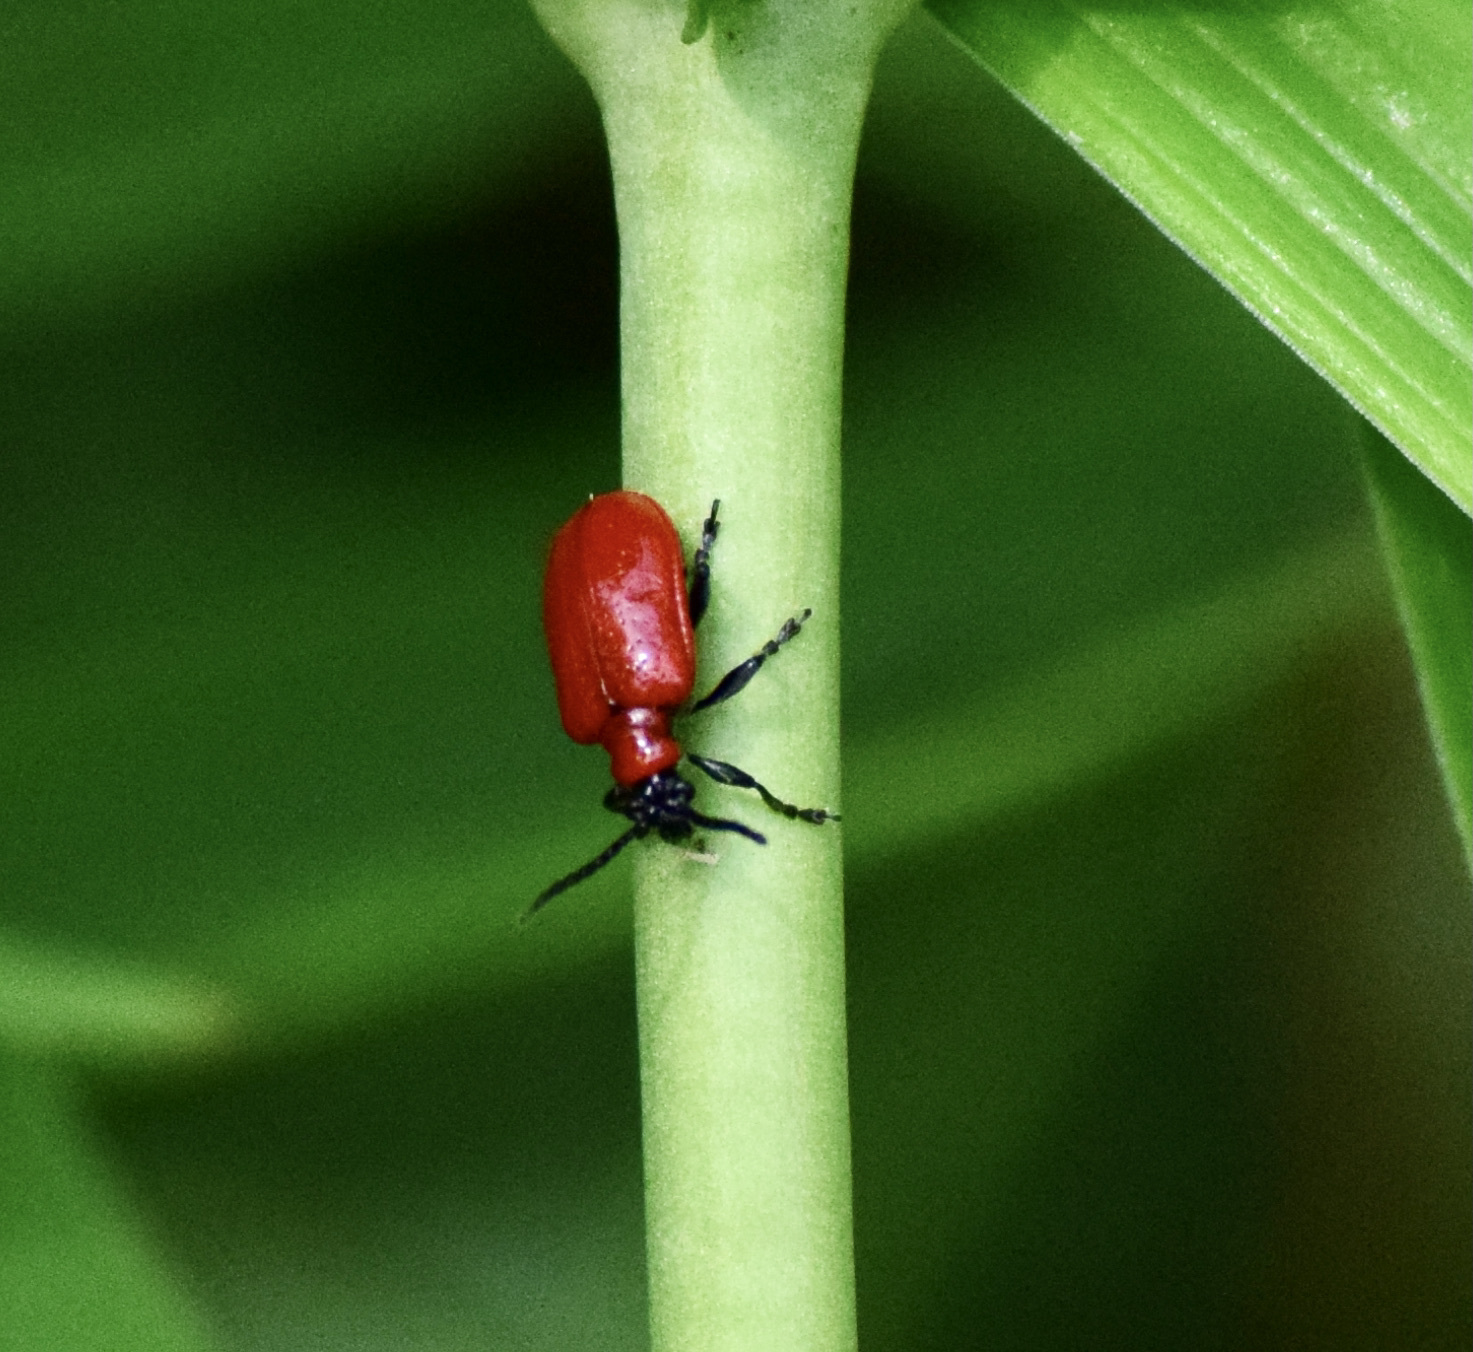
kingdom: Animalia
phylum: Arthropoda
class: Insecta
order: Coleoptera
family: Chrysomelidae
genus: Lilioceris
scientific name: Lilioceris lilii
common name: Lily beetle
